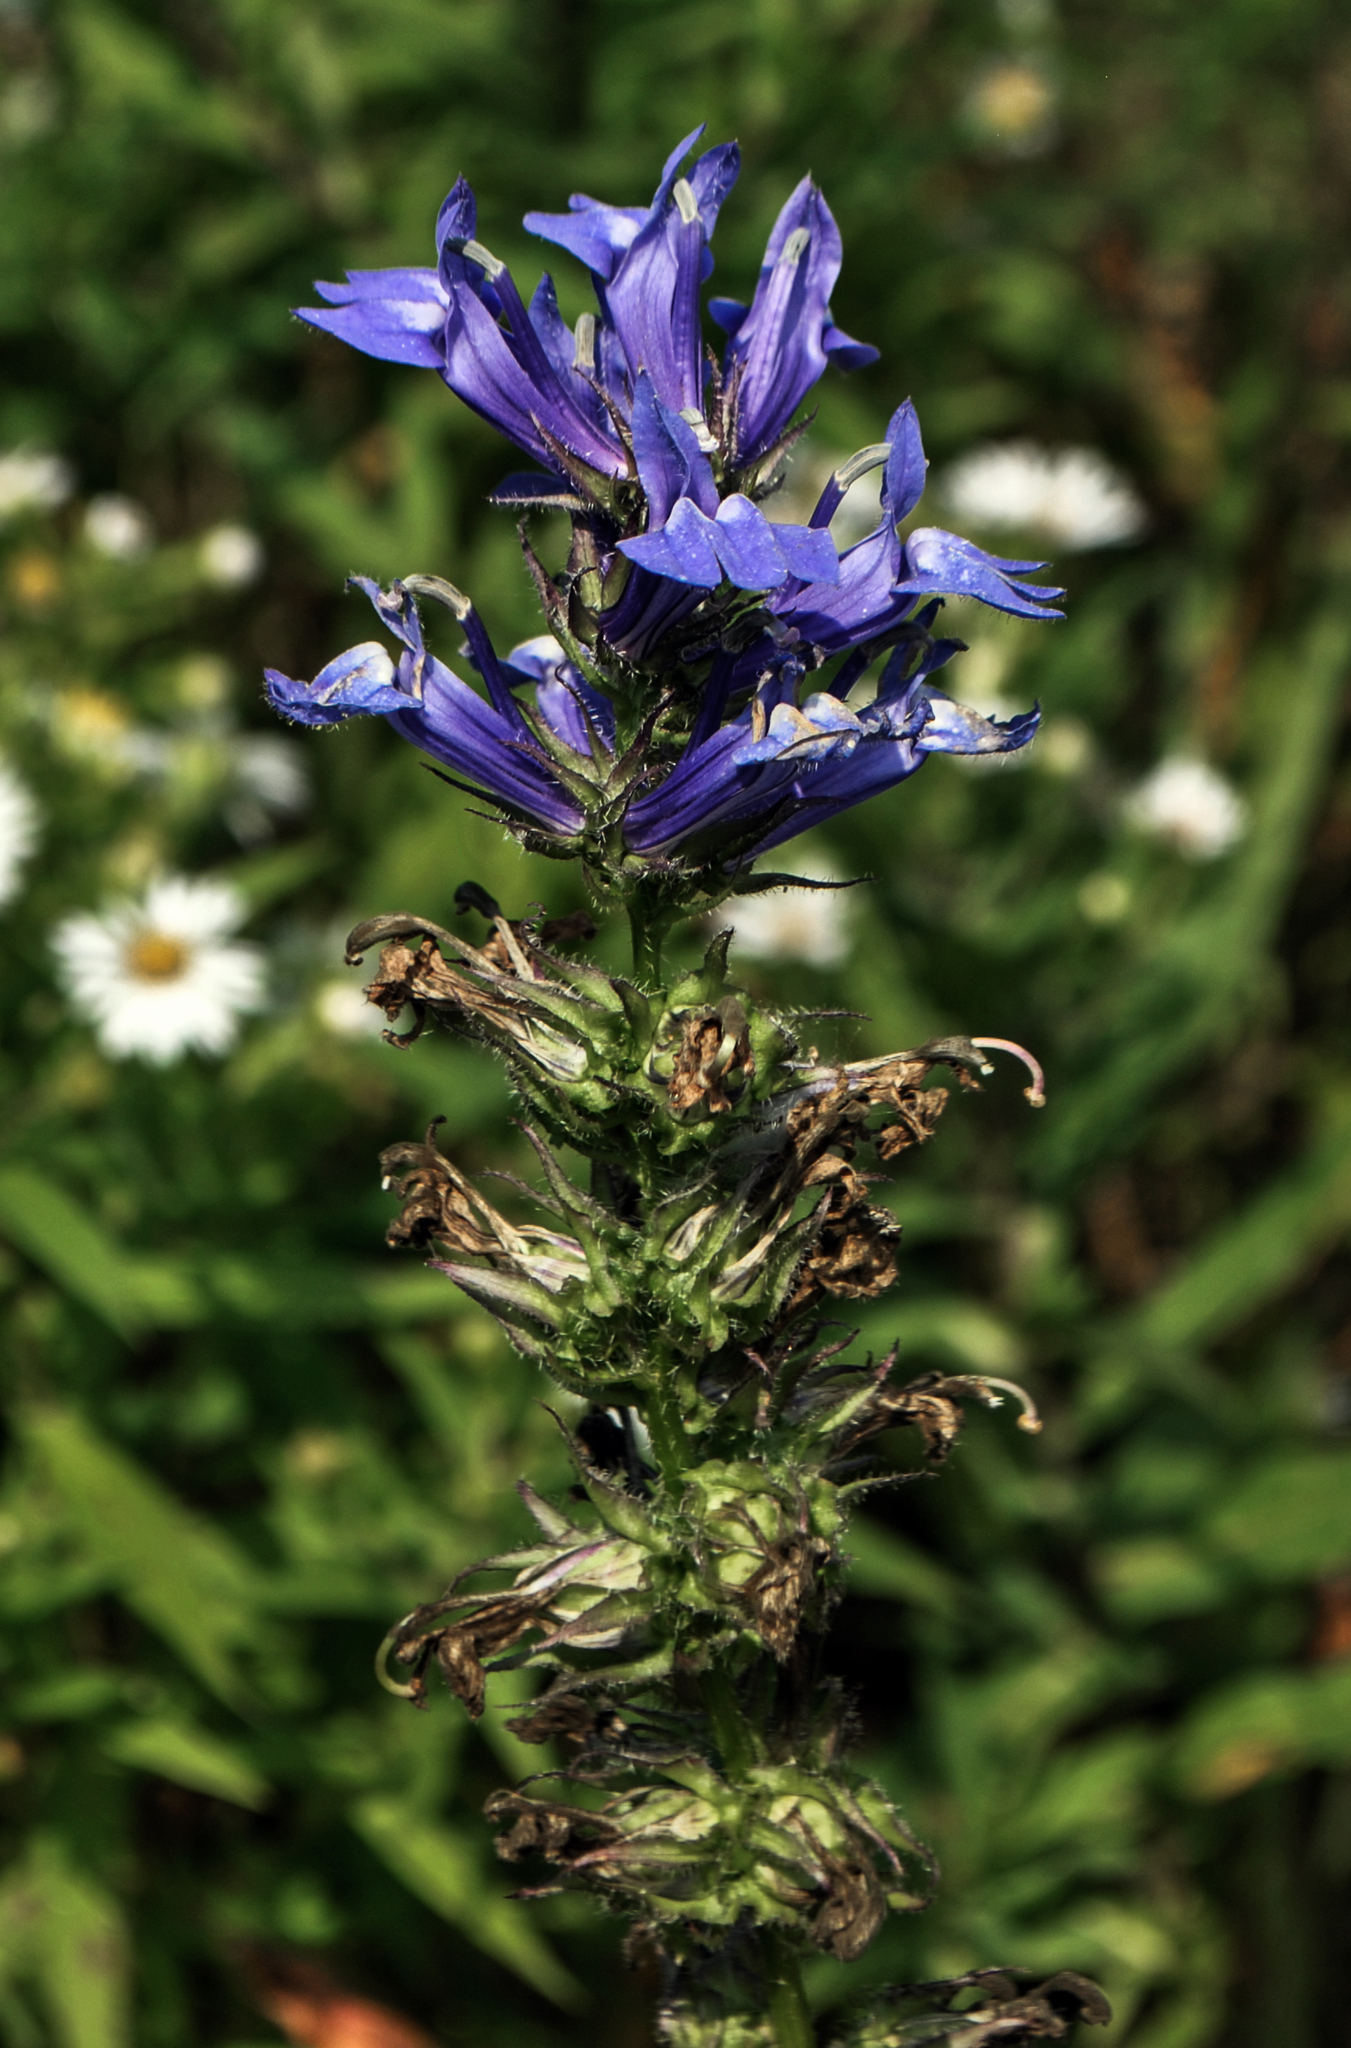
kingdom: Plantae
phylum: Tracheophyta
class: Magnoliopsida
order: Asterales
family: Campanulaceae
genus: Lobelia
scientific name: Lobelia siphilitica
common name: Great lobelia
